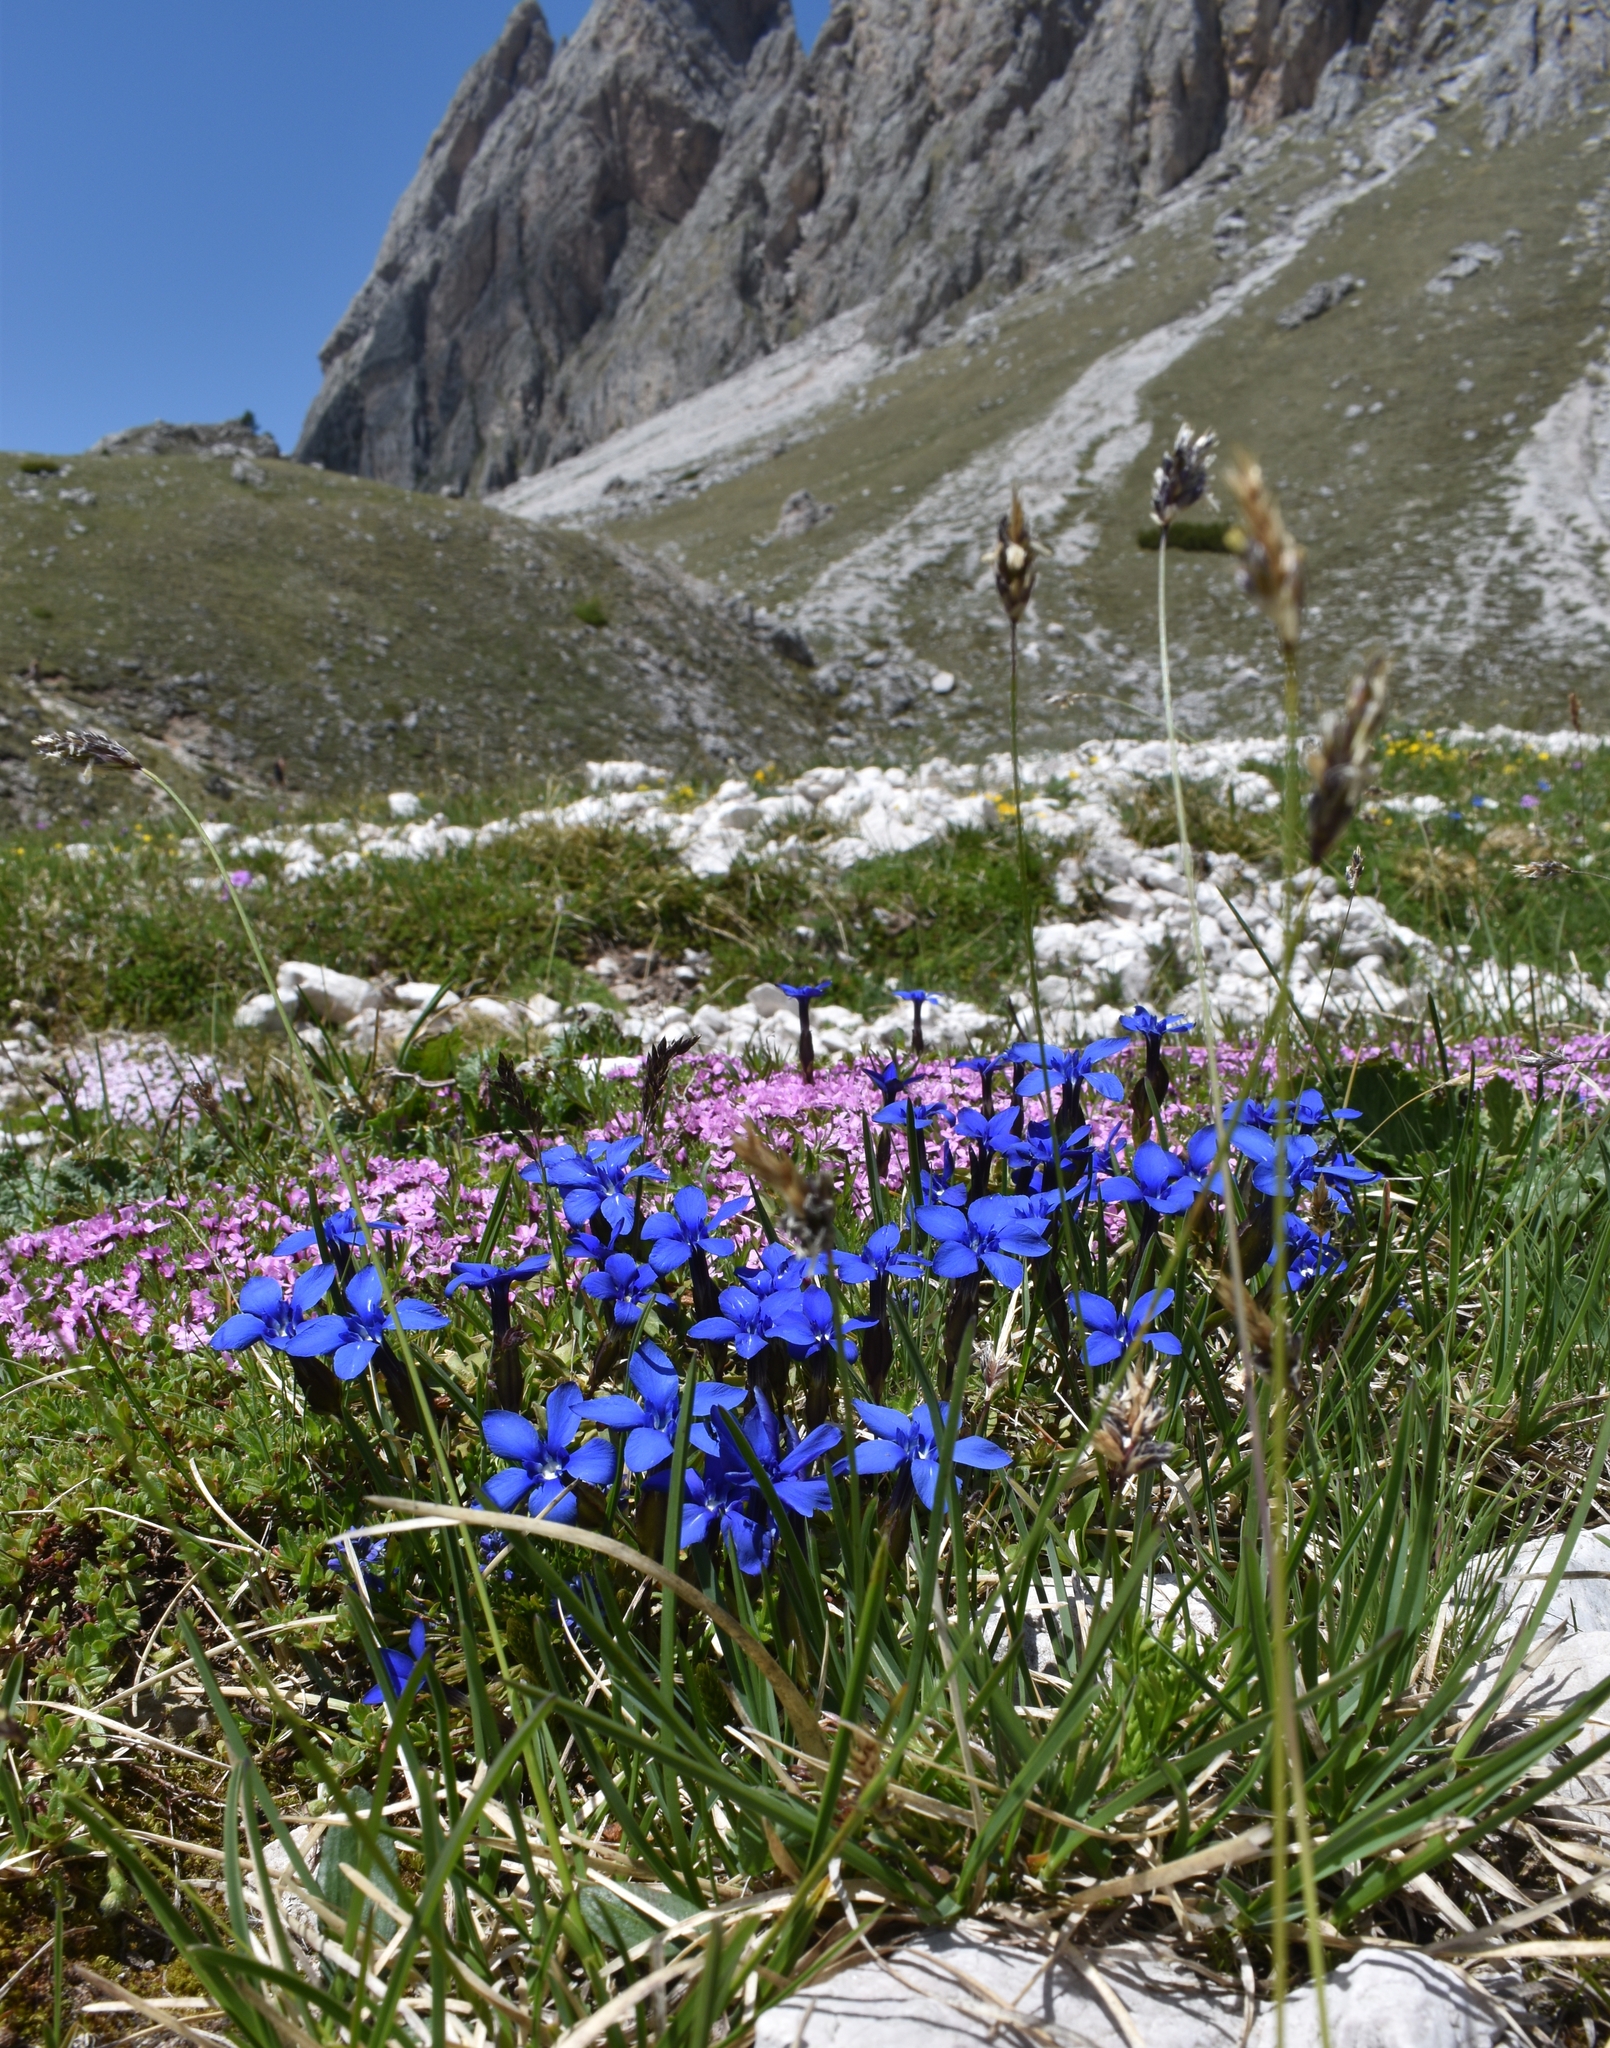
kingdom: Plantae
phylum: Tracheophyta
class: Magnoliopsida
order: Gentianales
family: Gentianaceae
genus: Gentiana
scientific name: Gentiana verna
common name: Spring gentian
